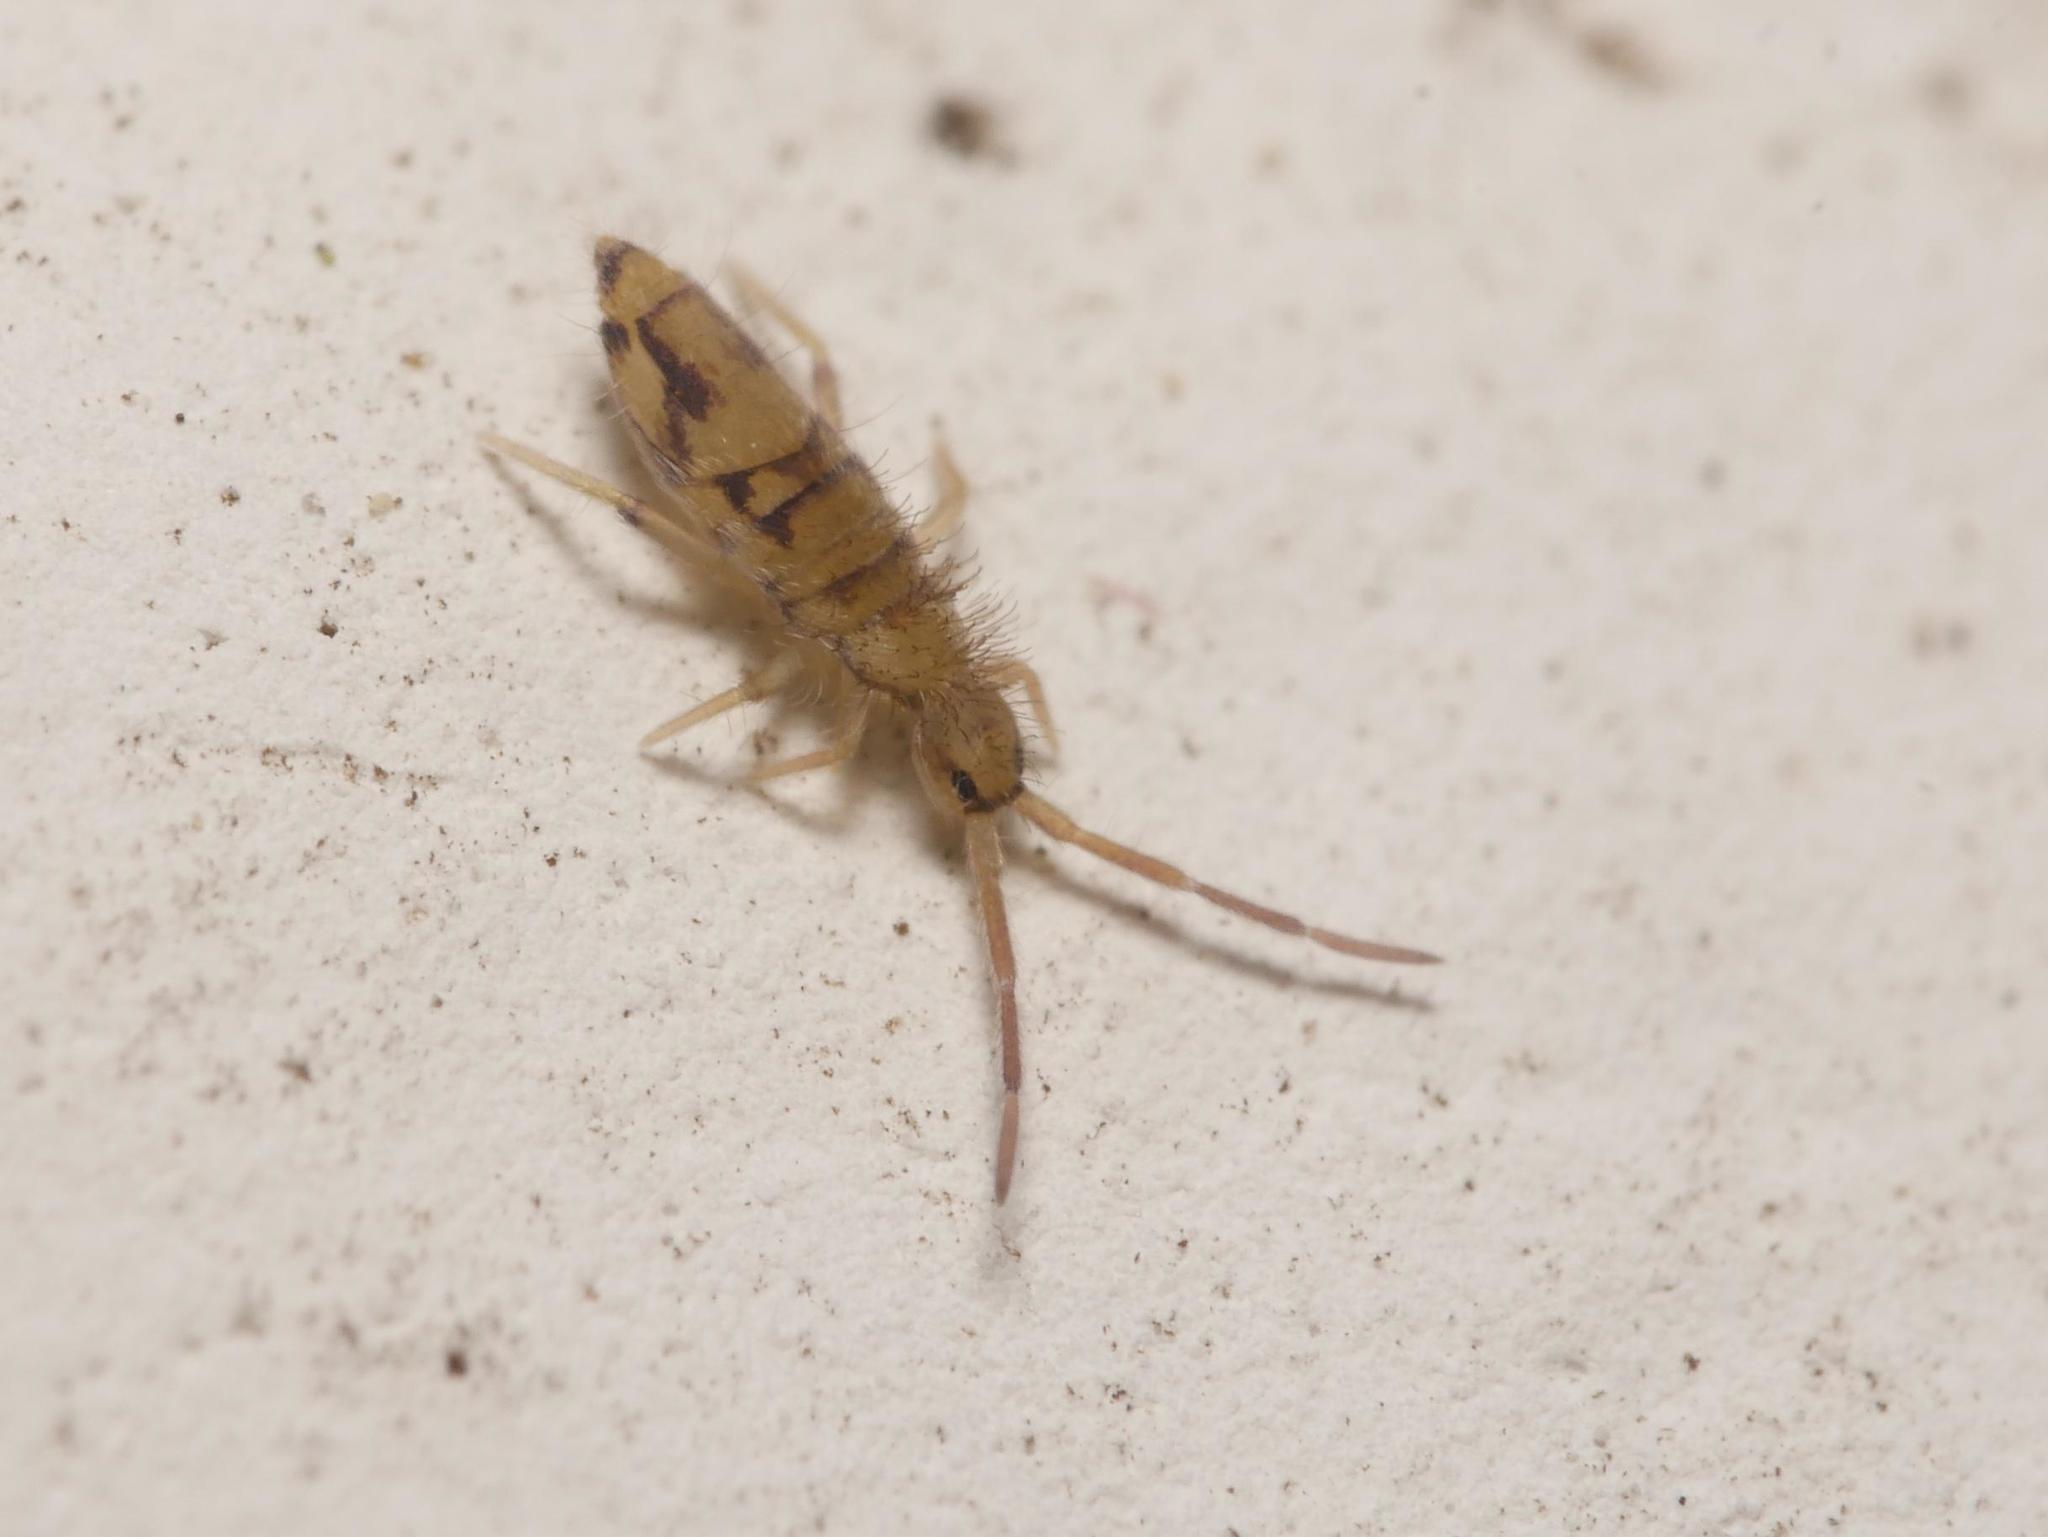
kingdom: Animalia
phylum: Arthropoda
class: Collembola
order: Entomobryomorpha
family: Entomobryidae
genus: Entomobrya
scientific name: Entomobrya nivalis
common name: Cosmopolitan springtail
